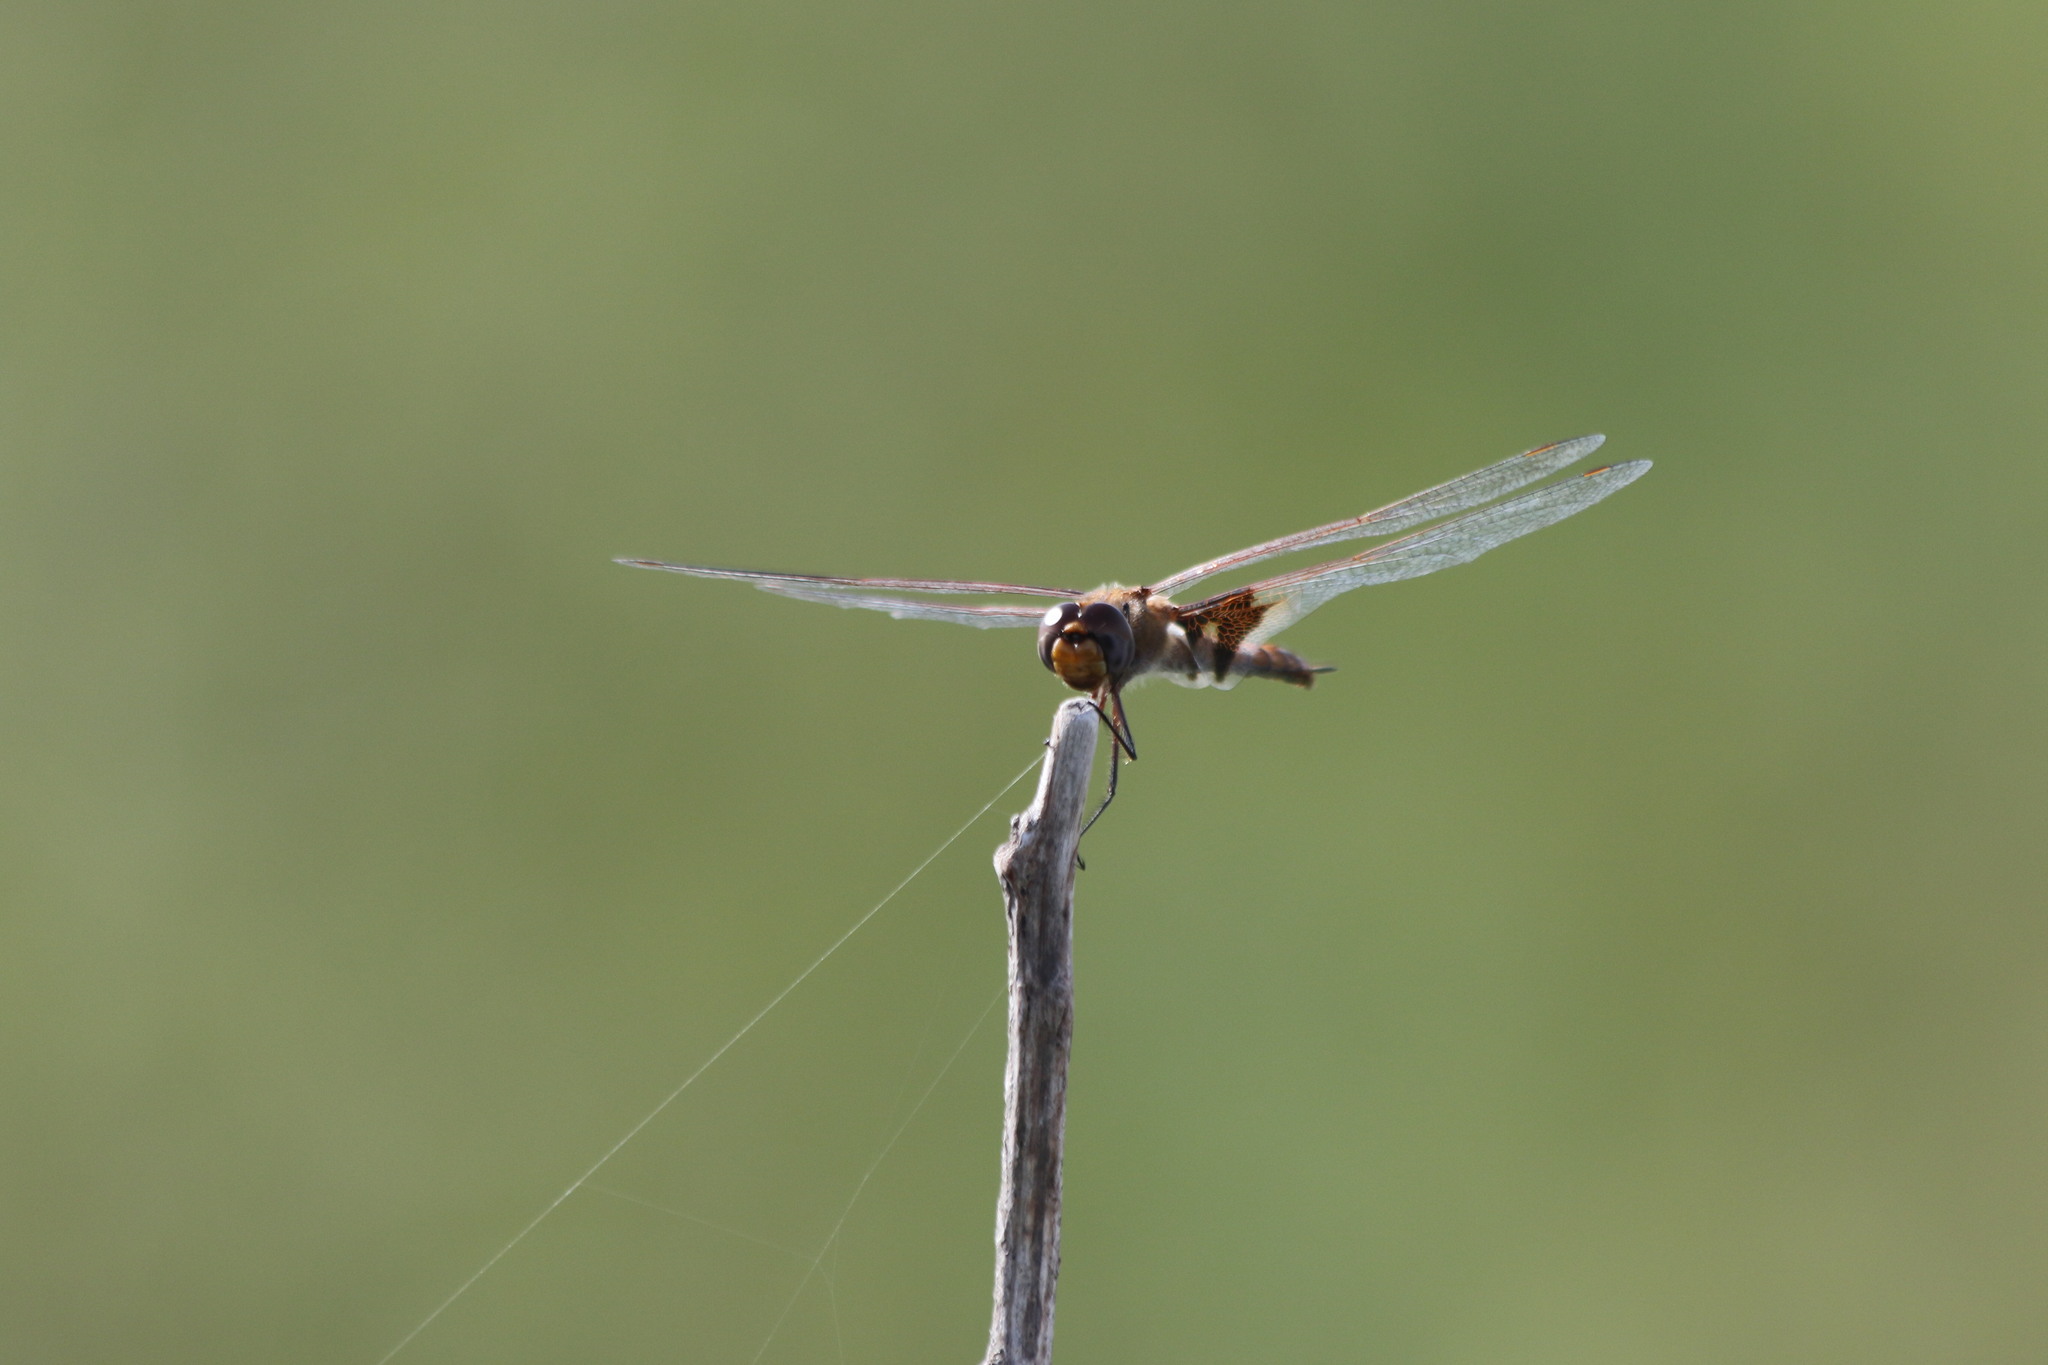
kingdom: Animalia
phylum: Arthropoda
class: Insecta
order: Odonata
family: Libellulidae
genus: Tramea
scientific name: Tramea onusta
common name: Red saddlebags
